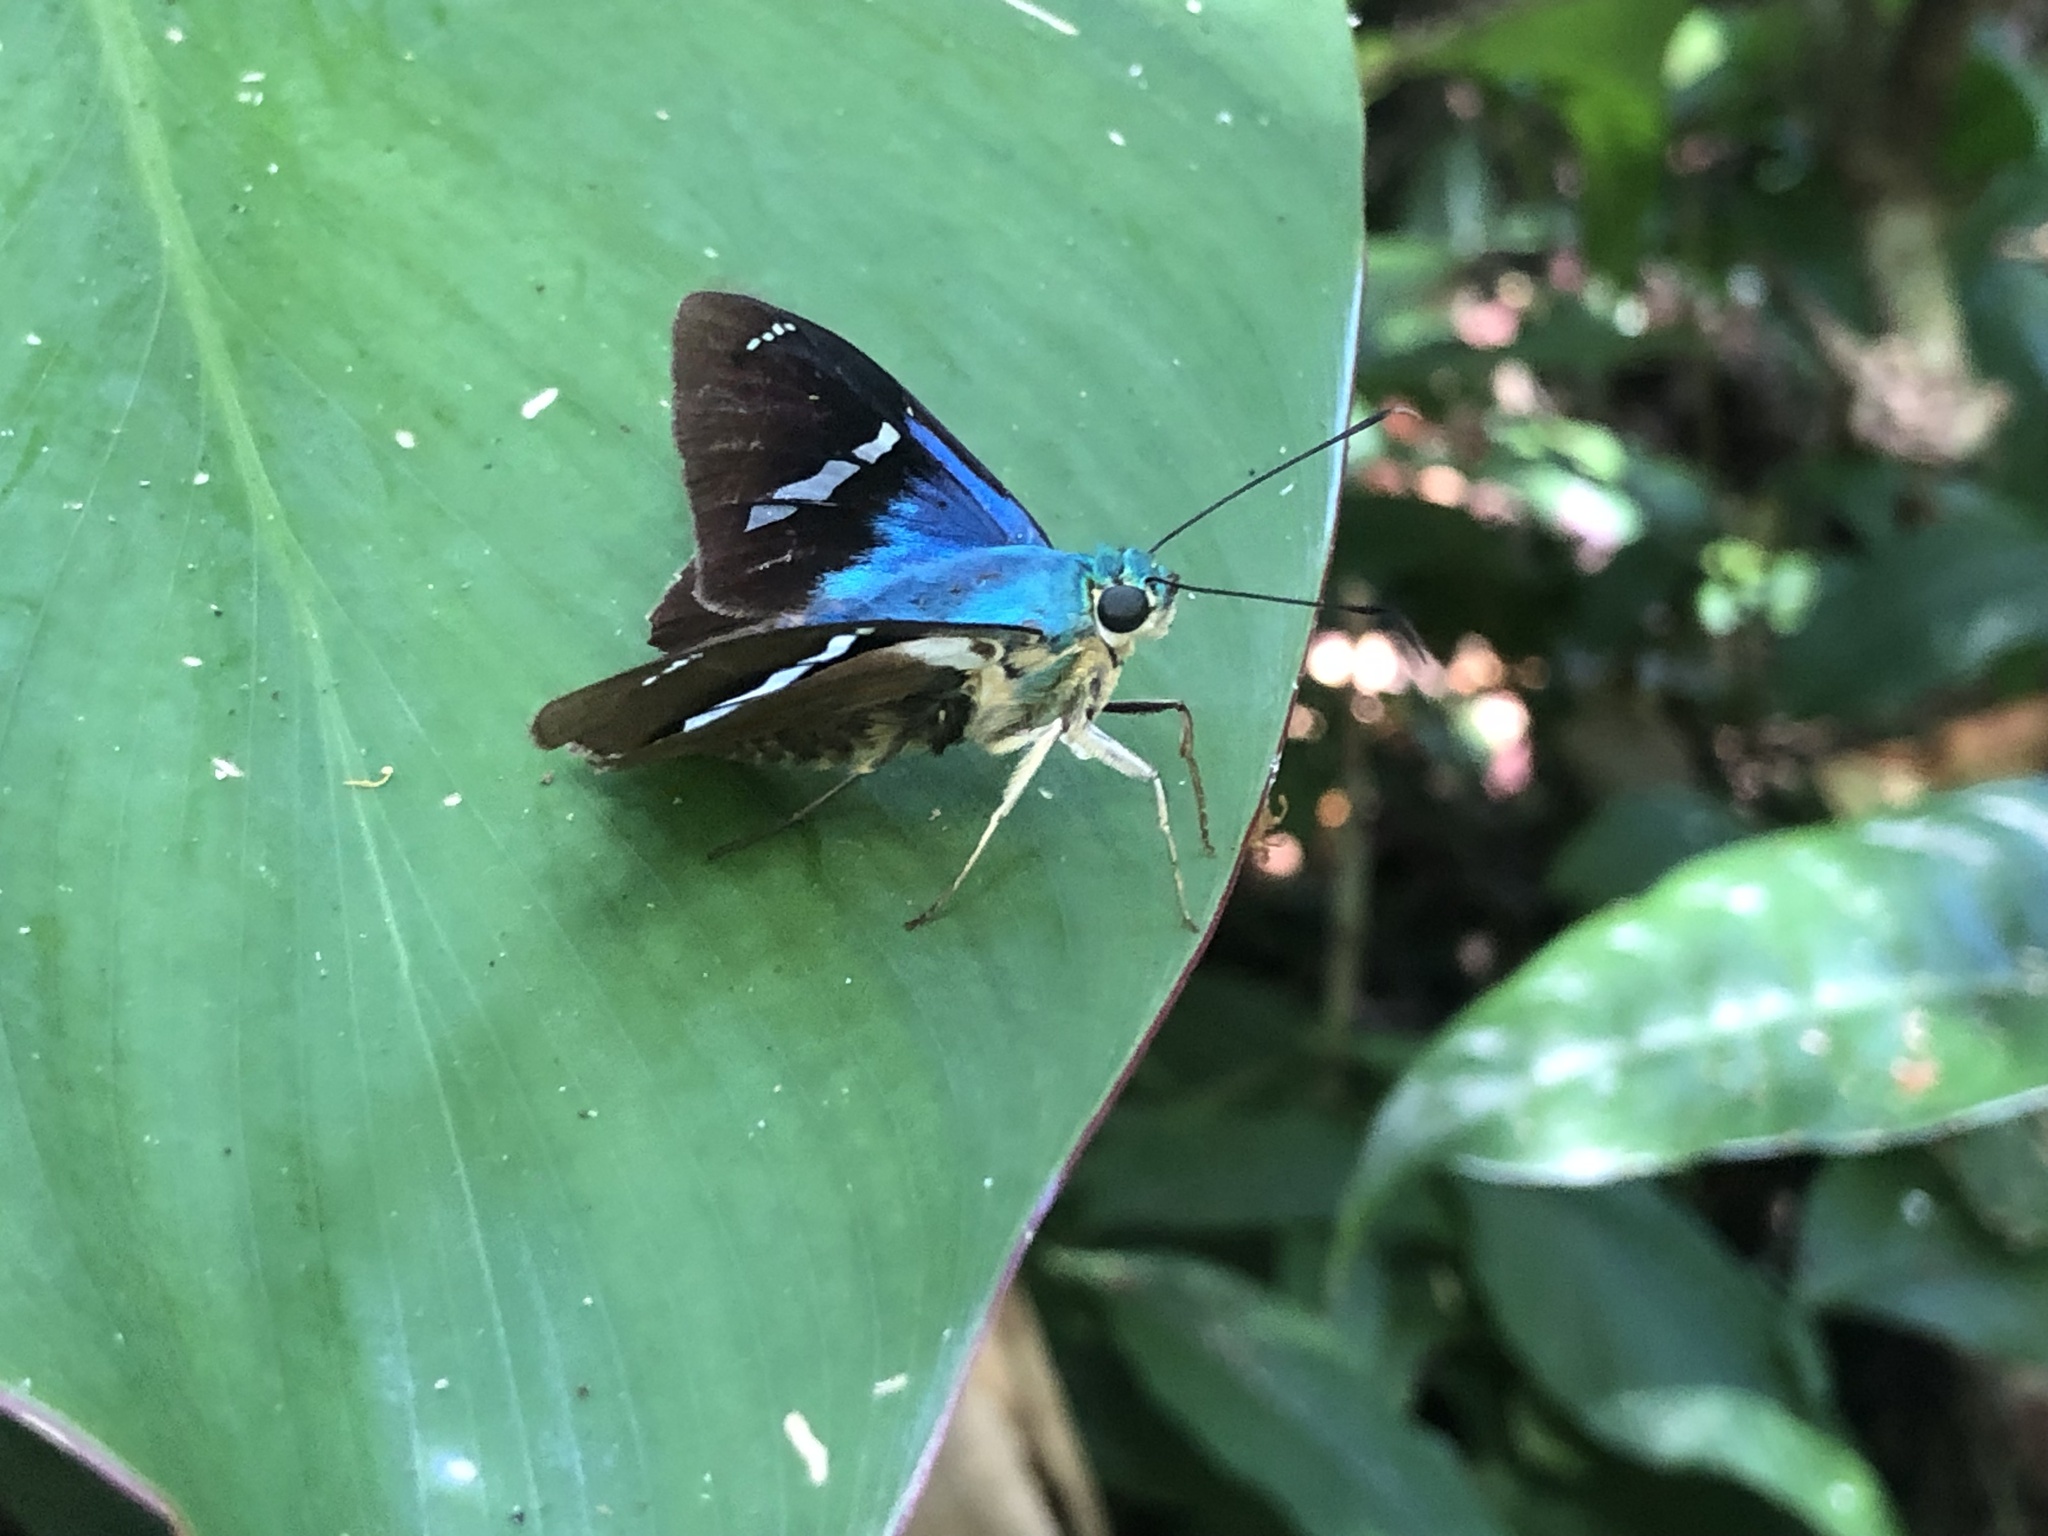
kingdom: Animalia
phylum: Arthropoda
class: Insecta
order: Lepidoptera
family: Hesperiidae
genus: Astraptes
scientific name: Astraptes fulgerator
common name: Two-barred flasher
